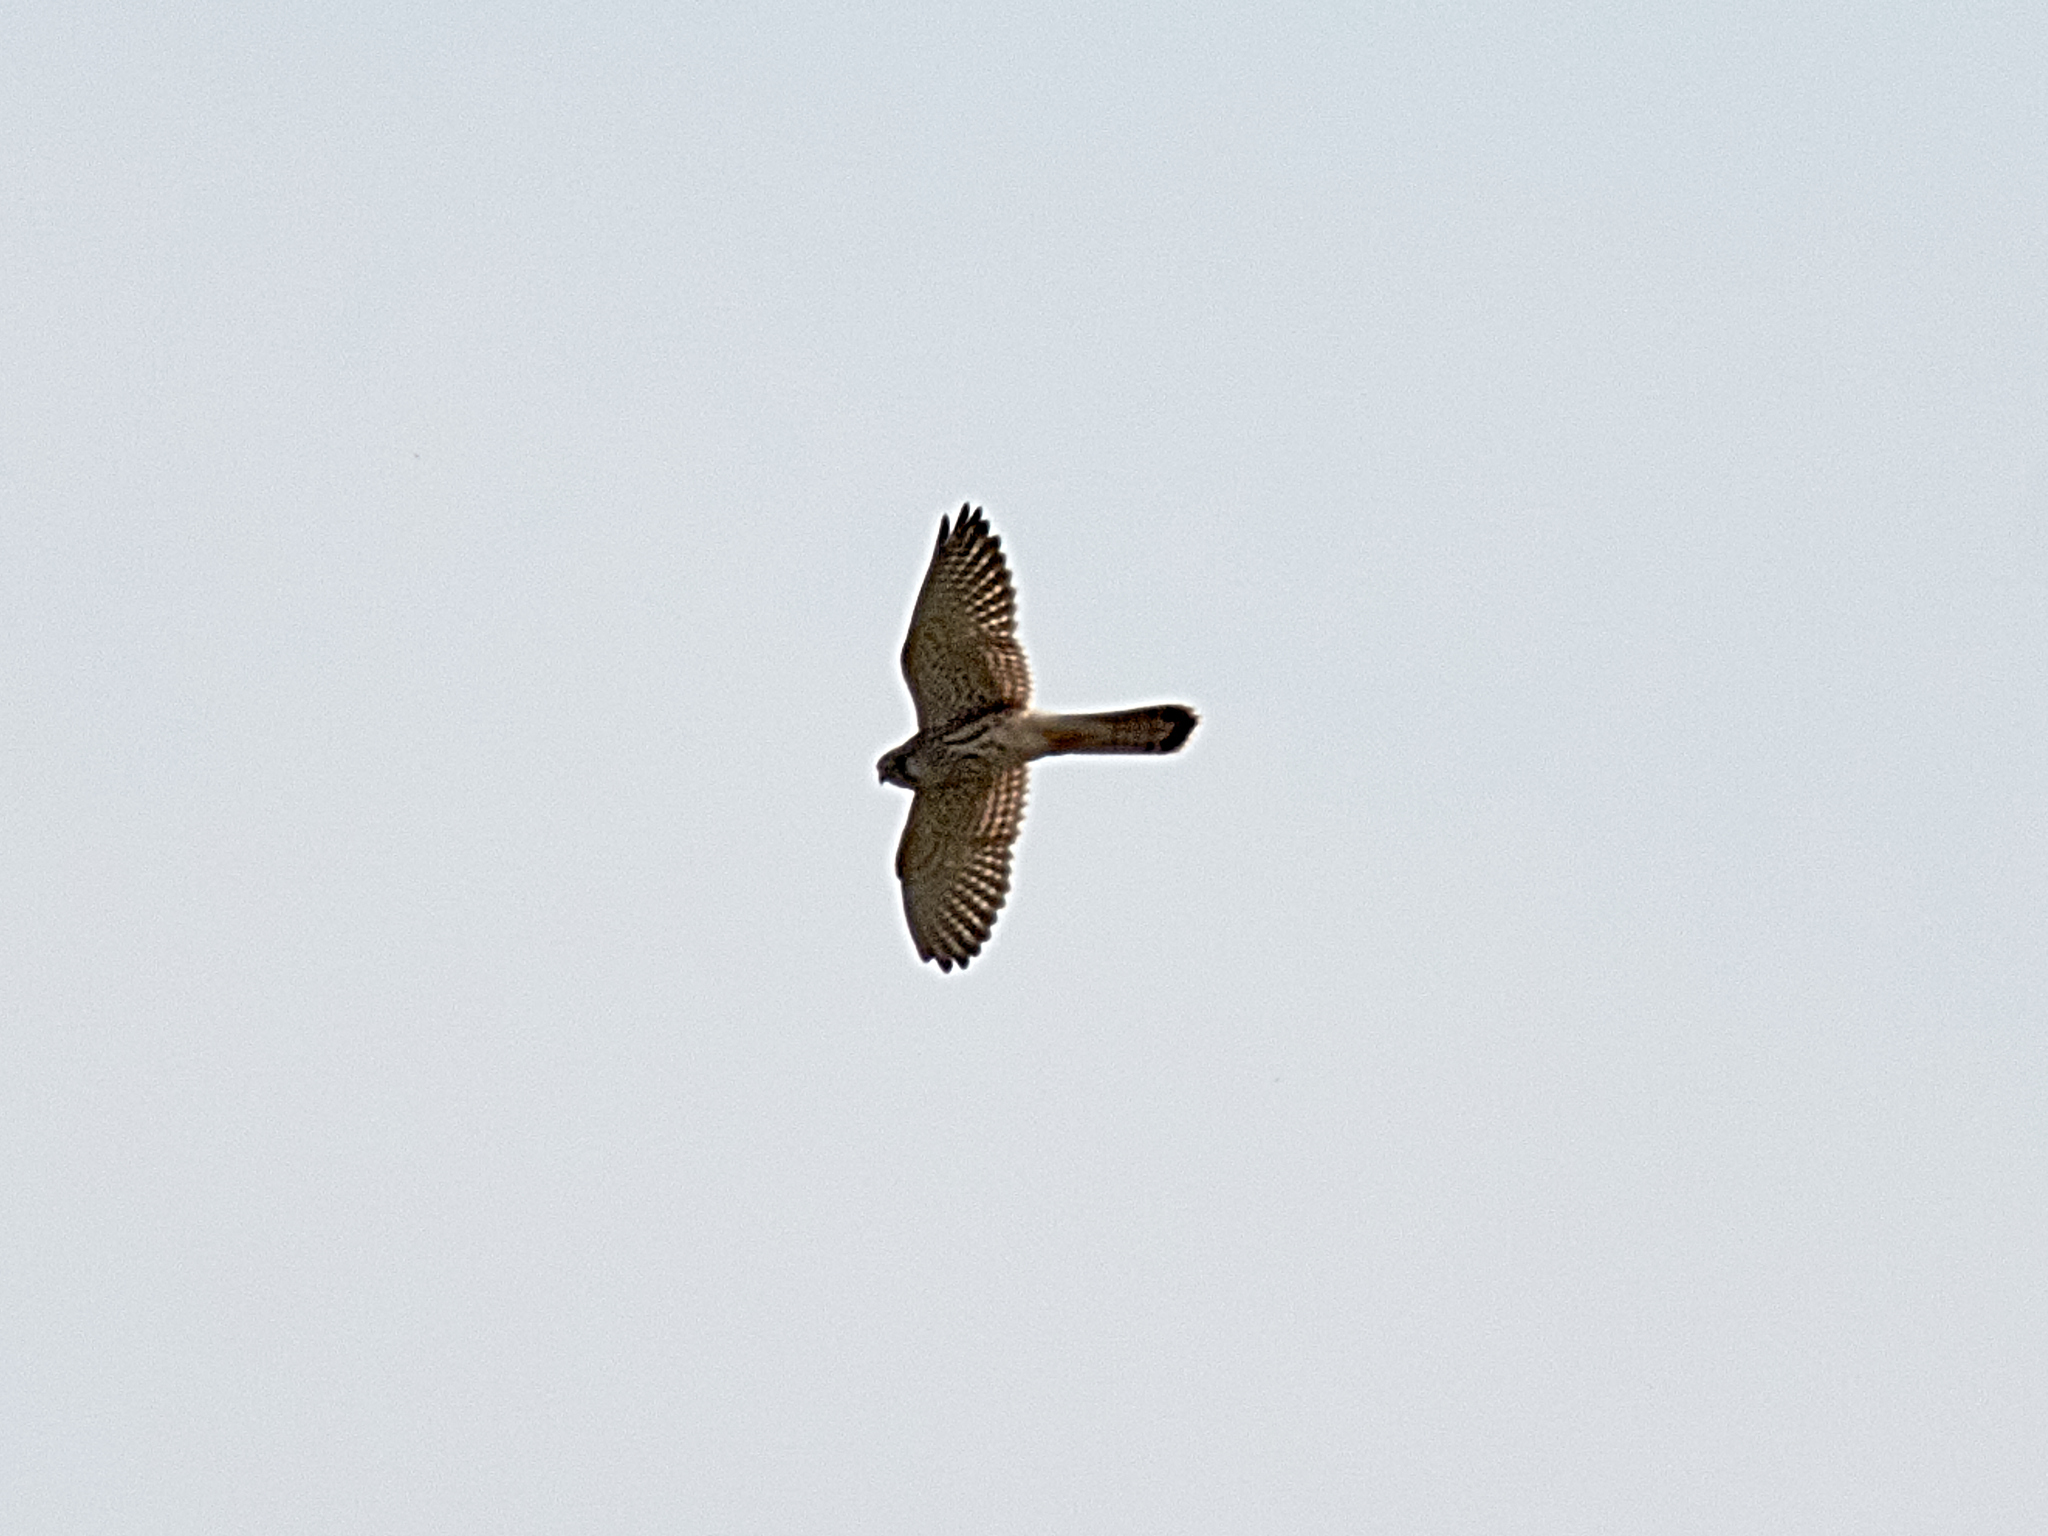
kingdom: Animalia
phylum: Chordata
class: Aves
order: Falconiformes
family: Falconidae
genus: Falco
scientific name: Falco tinnunculus
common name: Common kestrel
